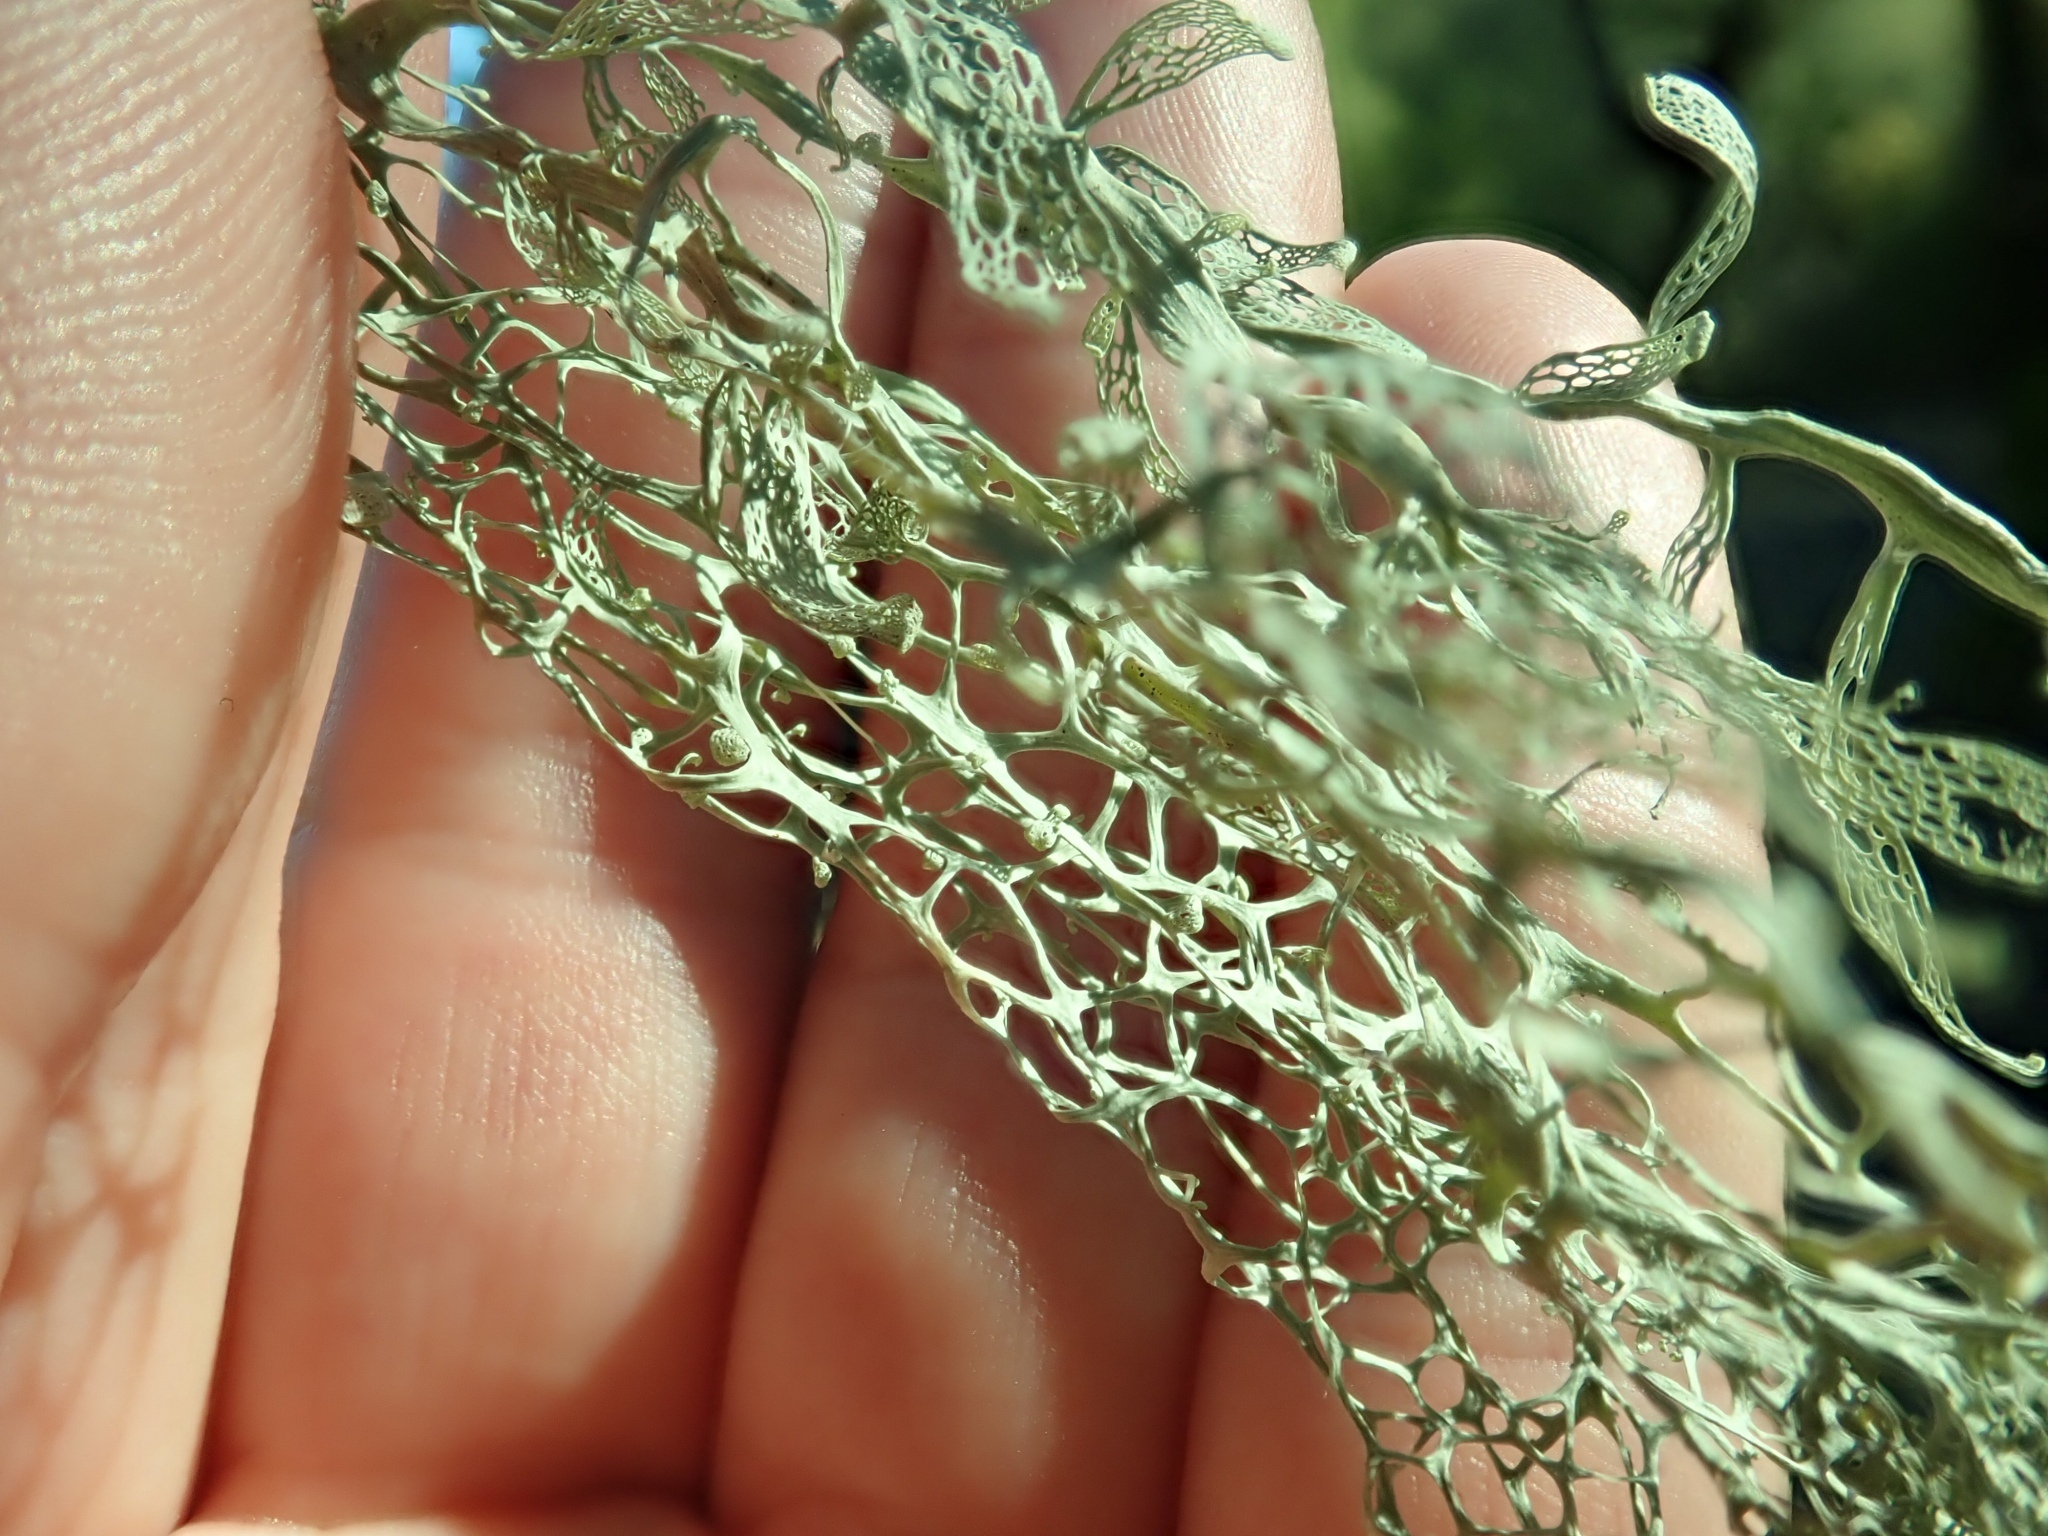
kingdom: Fungi
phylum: Ascomycota
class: Lecanoromycetes
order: Lecanorales
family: Ramalinaceae
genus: Ramalina
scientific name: Ramalina menziesii
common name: Lace lichen
